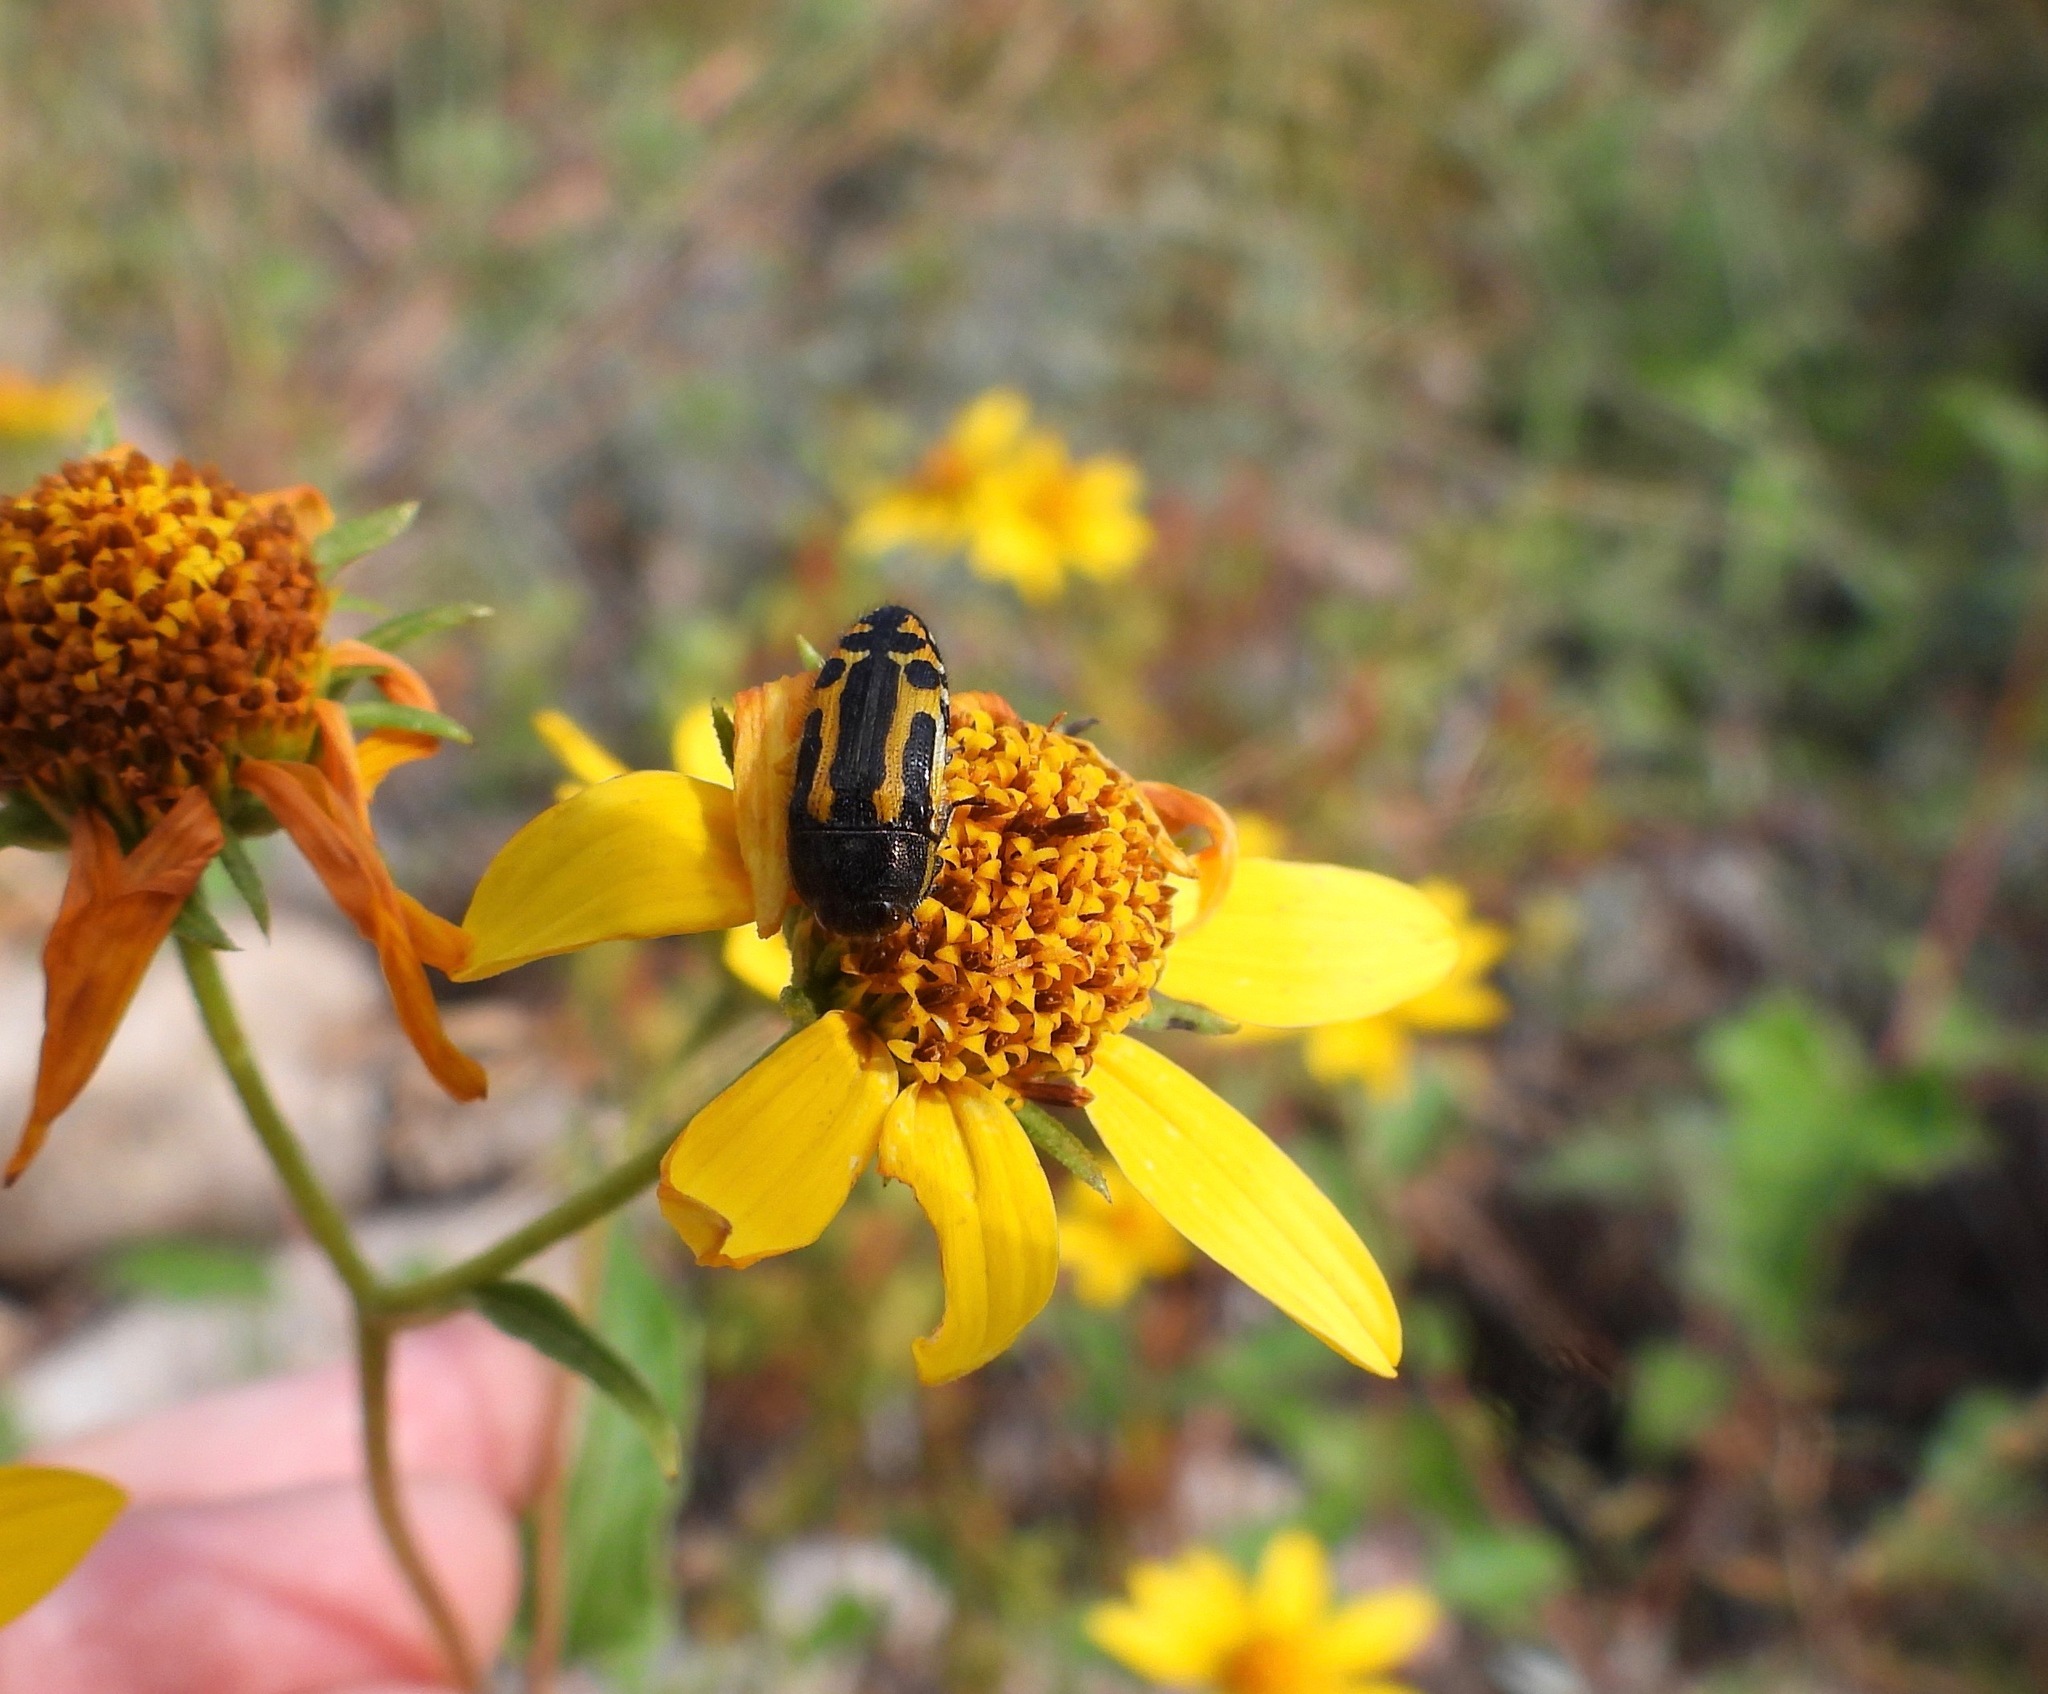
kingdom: Animalia
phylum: Arthropoda
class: Insecta
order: Coleoptera
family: Buprestidae
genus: Acmaeodera
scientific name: Acmaeodera scalaris
